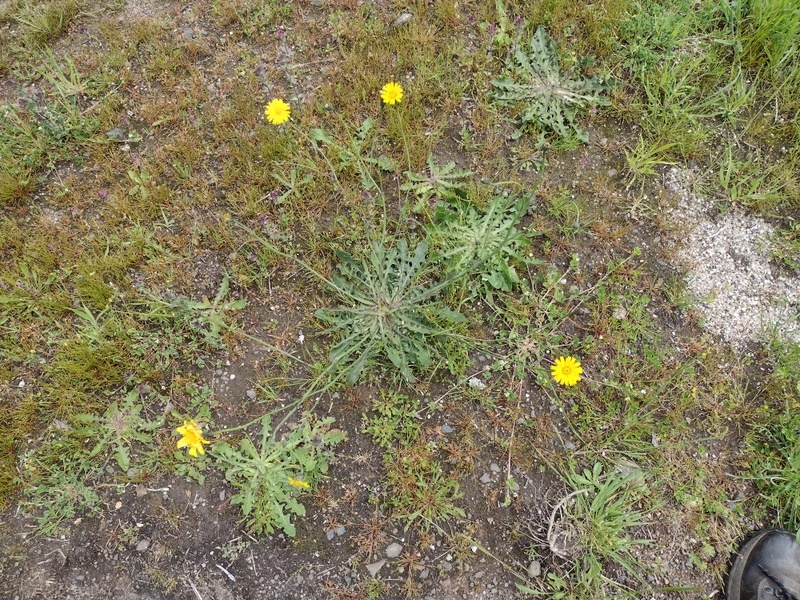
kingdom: Plantae
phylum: Tracheophyta
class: Magnoliopsida
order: Asterales
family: Asteraceae
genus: Hypochaeris
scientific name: Hypochaeris radicata
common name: Flatweed
